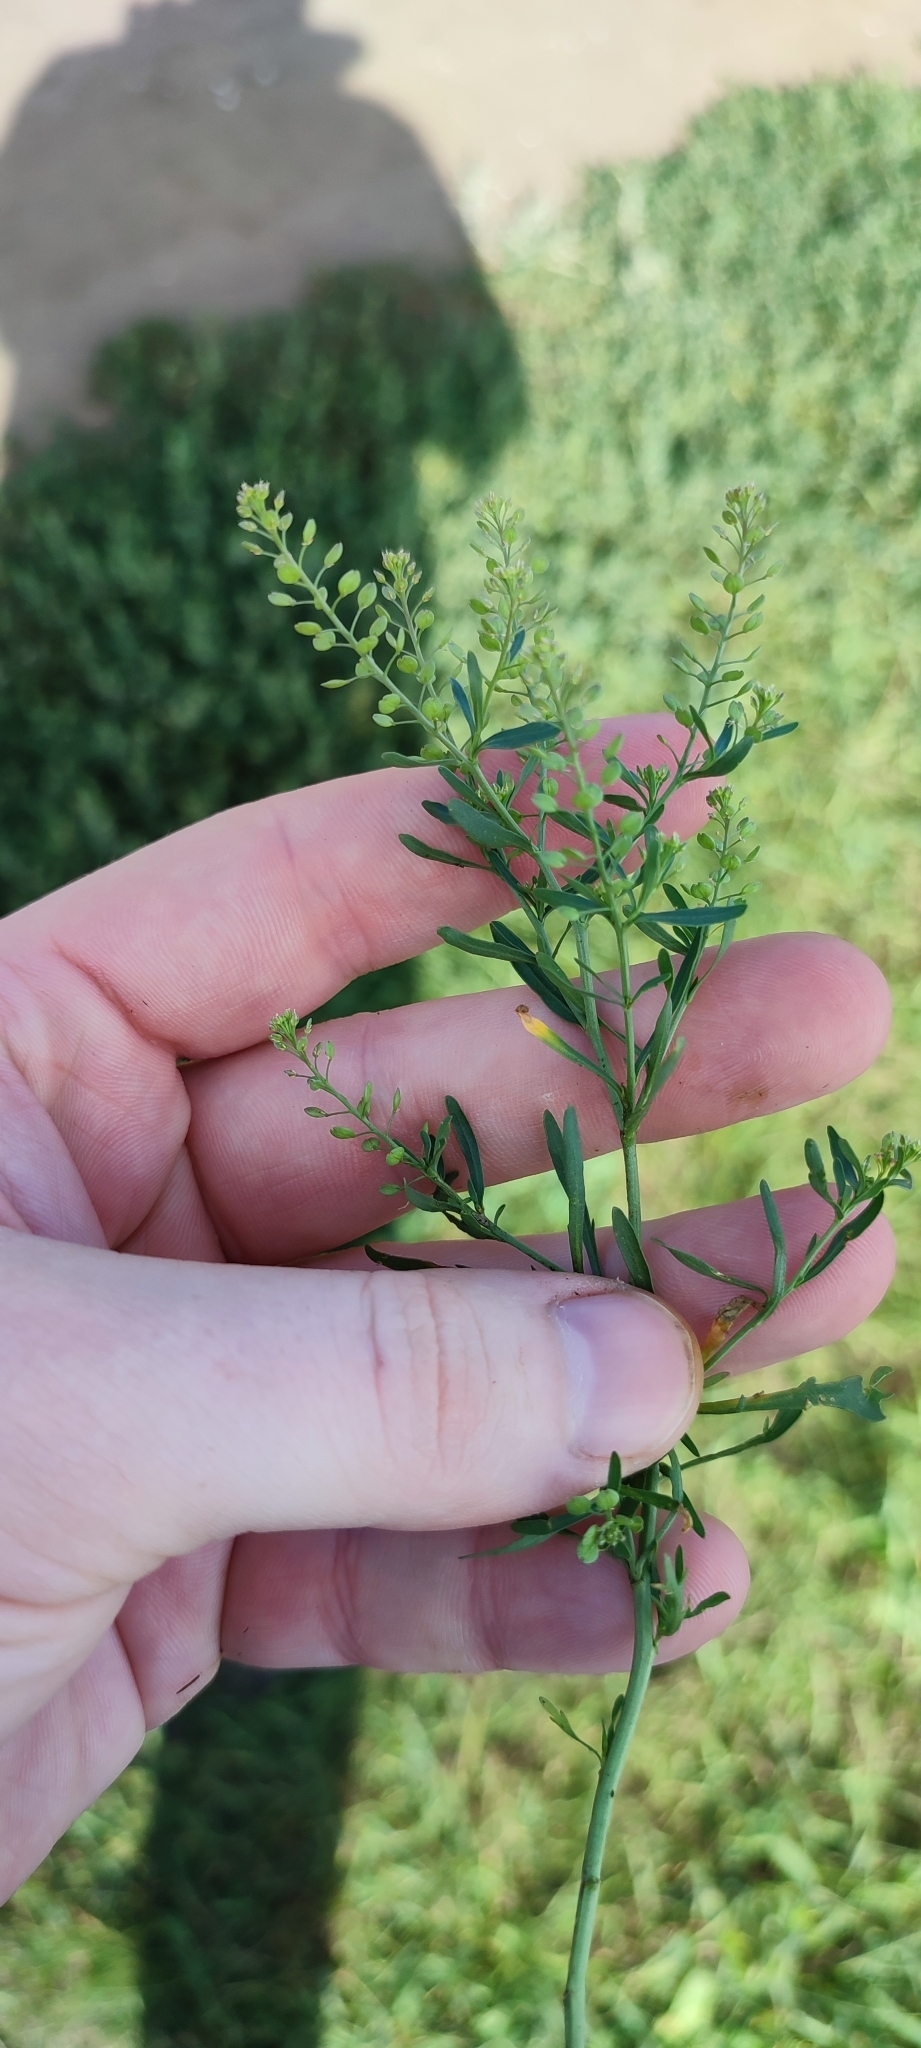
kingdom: Plantae
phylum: Tracheophyta
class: Magnoliopsida
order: Brassicales
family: Brassicaceae
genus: Lepidium
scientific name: Lepidium ruderale
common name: Narrow-leaved pepperwort
